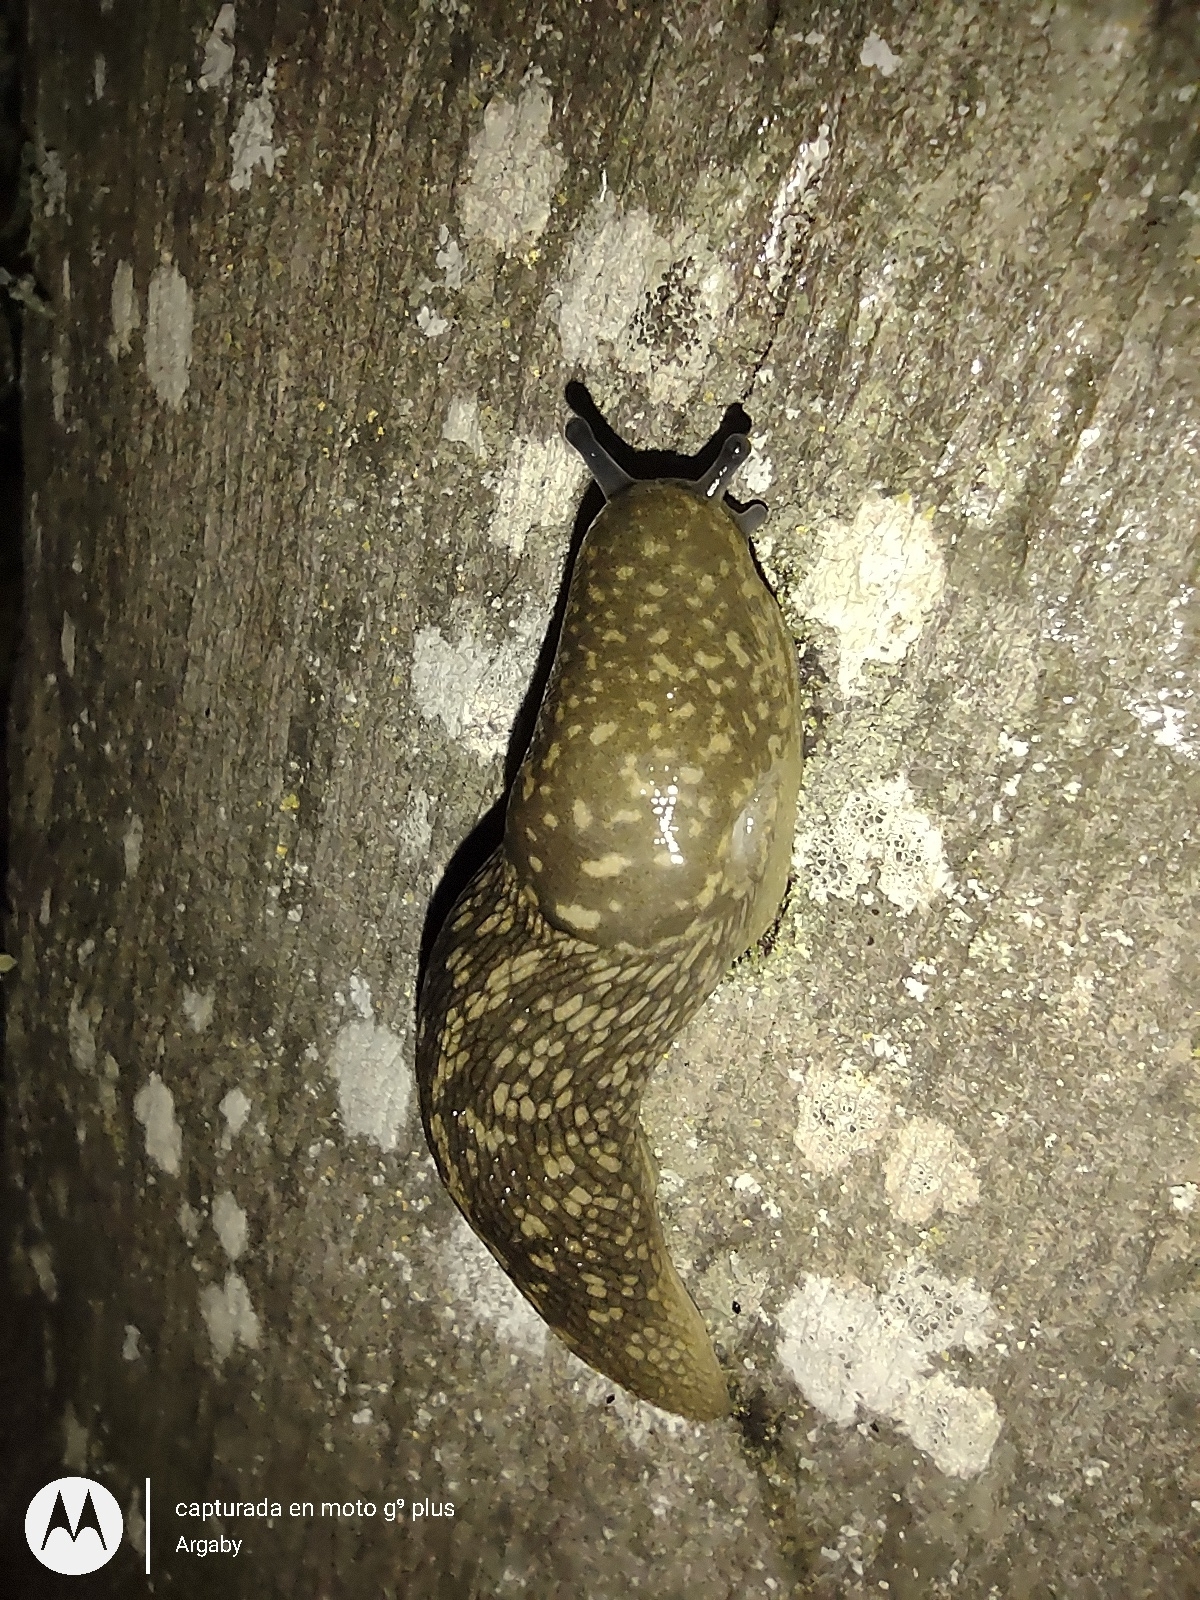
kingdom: Animalia
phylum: Mollusca
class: Gastropoda
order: Stylommatophora
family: Limacidae
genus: Limacus
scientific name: Limacus flavus
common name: Yellow gardenslug
